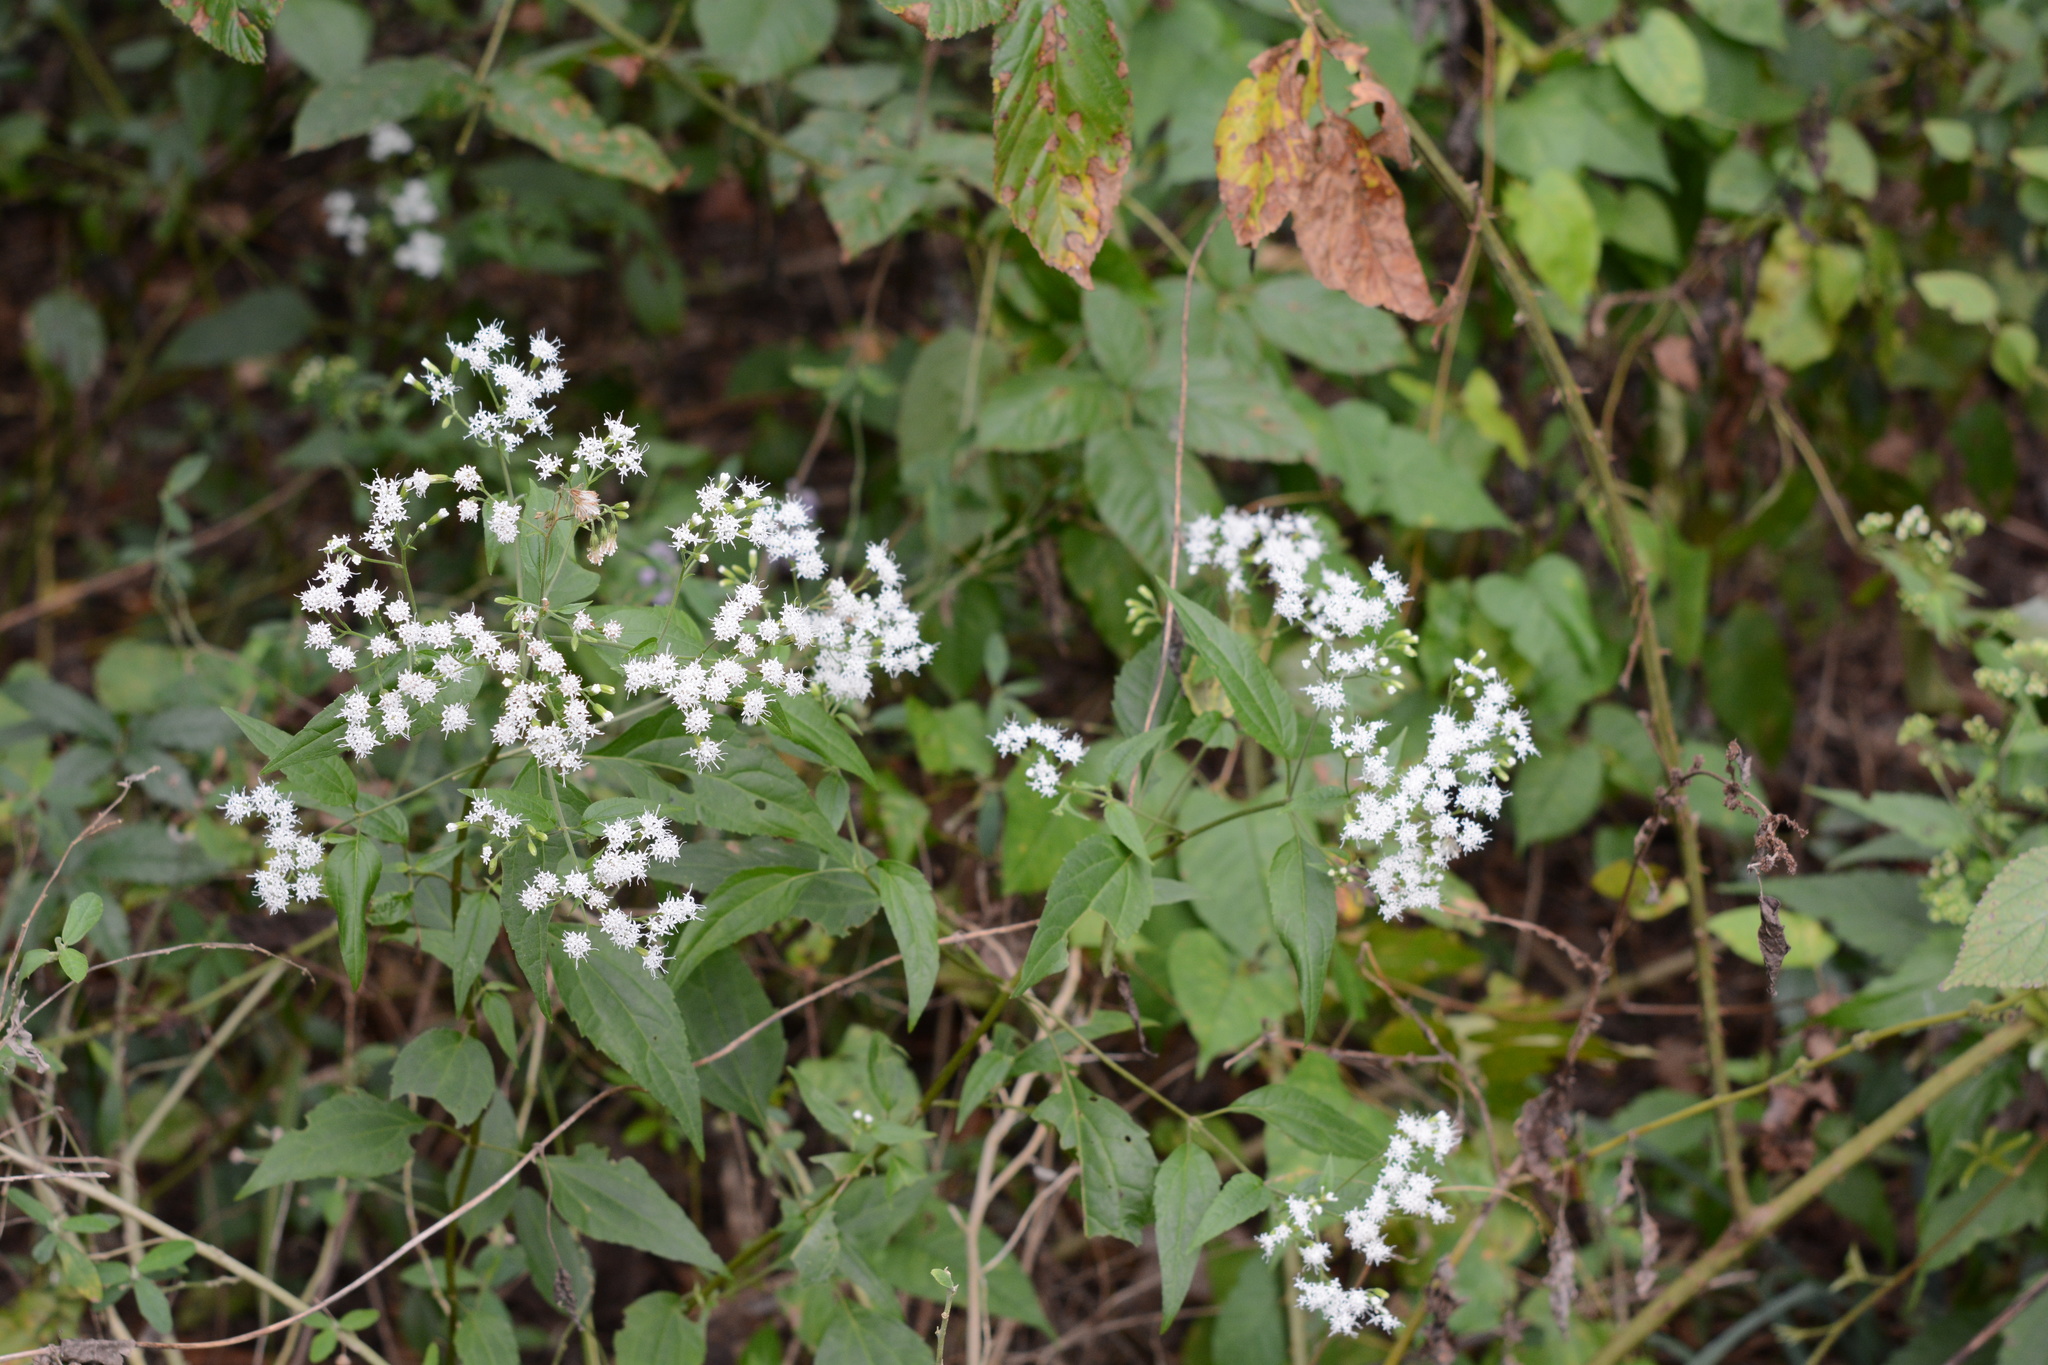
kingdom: Plantae
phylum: Tracheophyta
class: Magnoliopsida
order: Asterales
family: Asteraceae
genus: Ageratina
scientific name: Ageratina altissima
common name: White snakeroot
